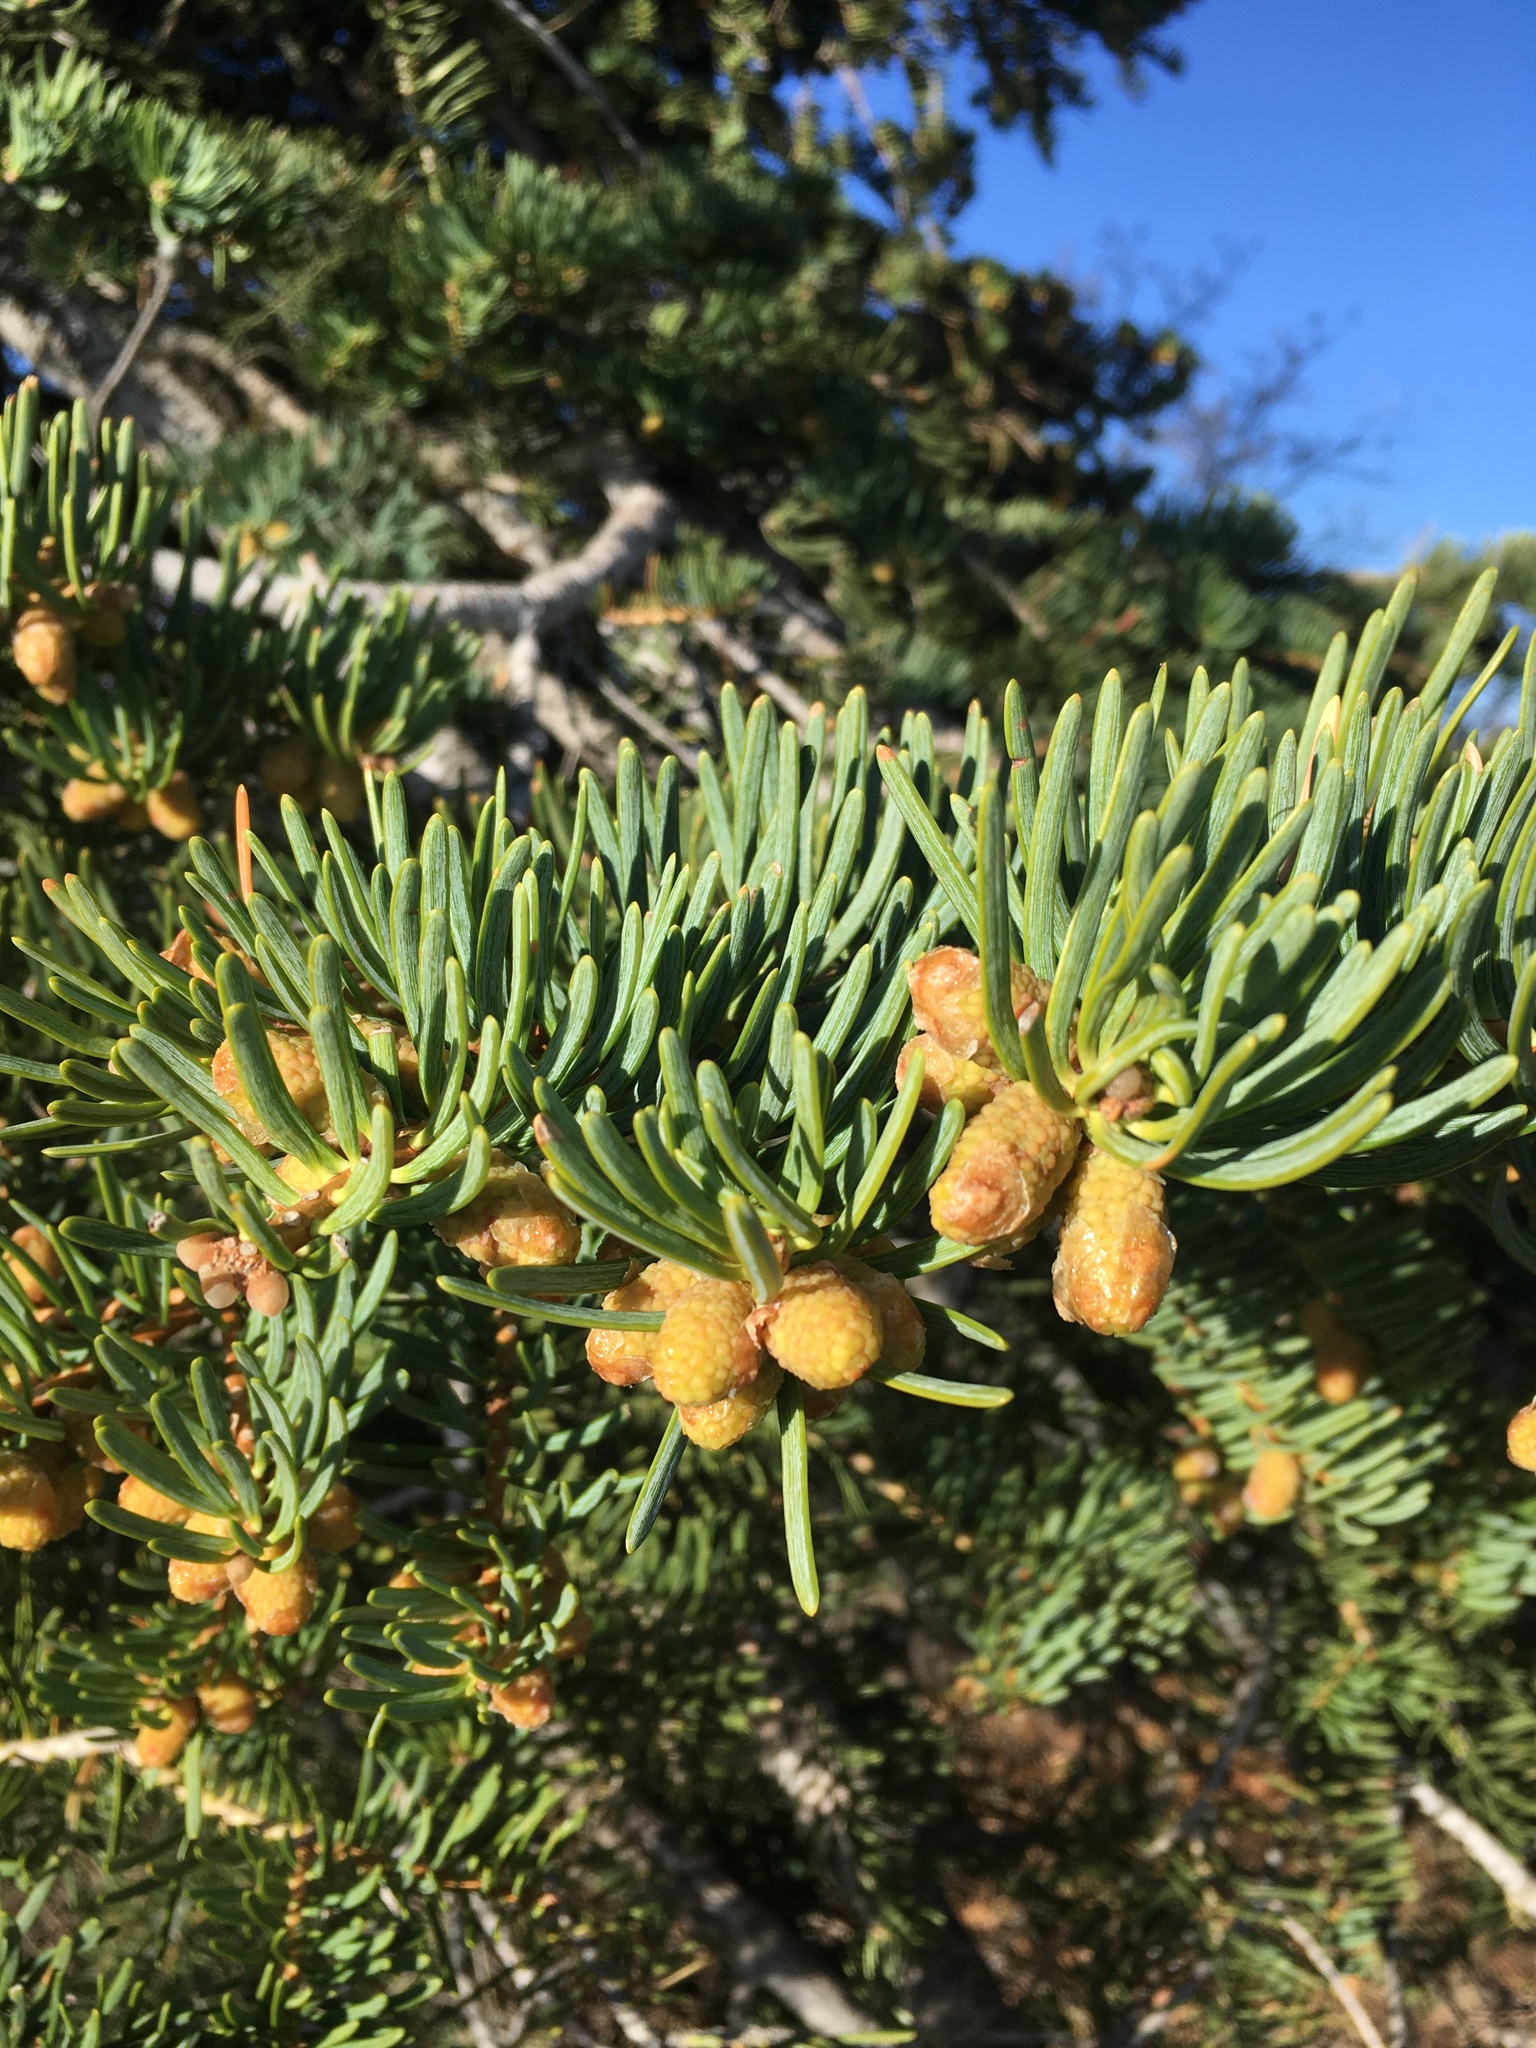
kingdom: Plantae
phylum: Tracheophyta
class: Pinopsida
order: Pinales
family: Pinaceae
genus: Abies
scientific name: Abies concolor
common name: Colorado fir
